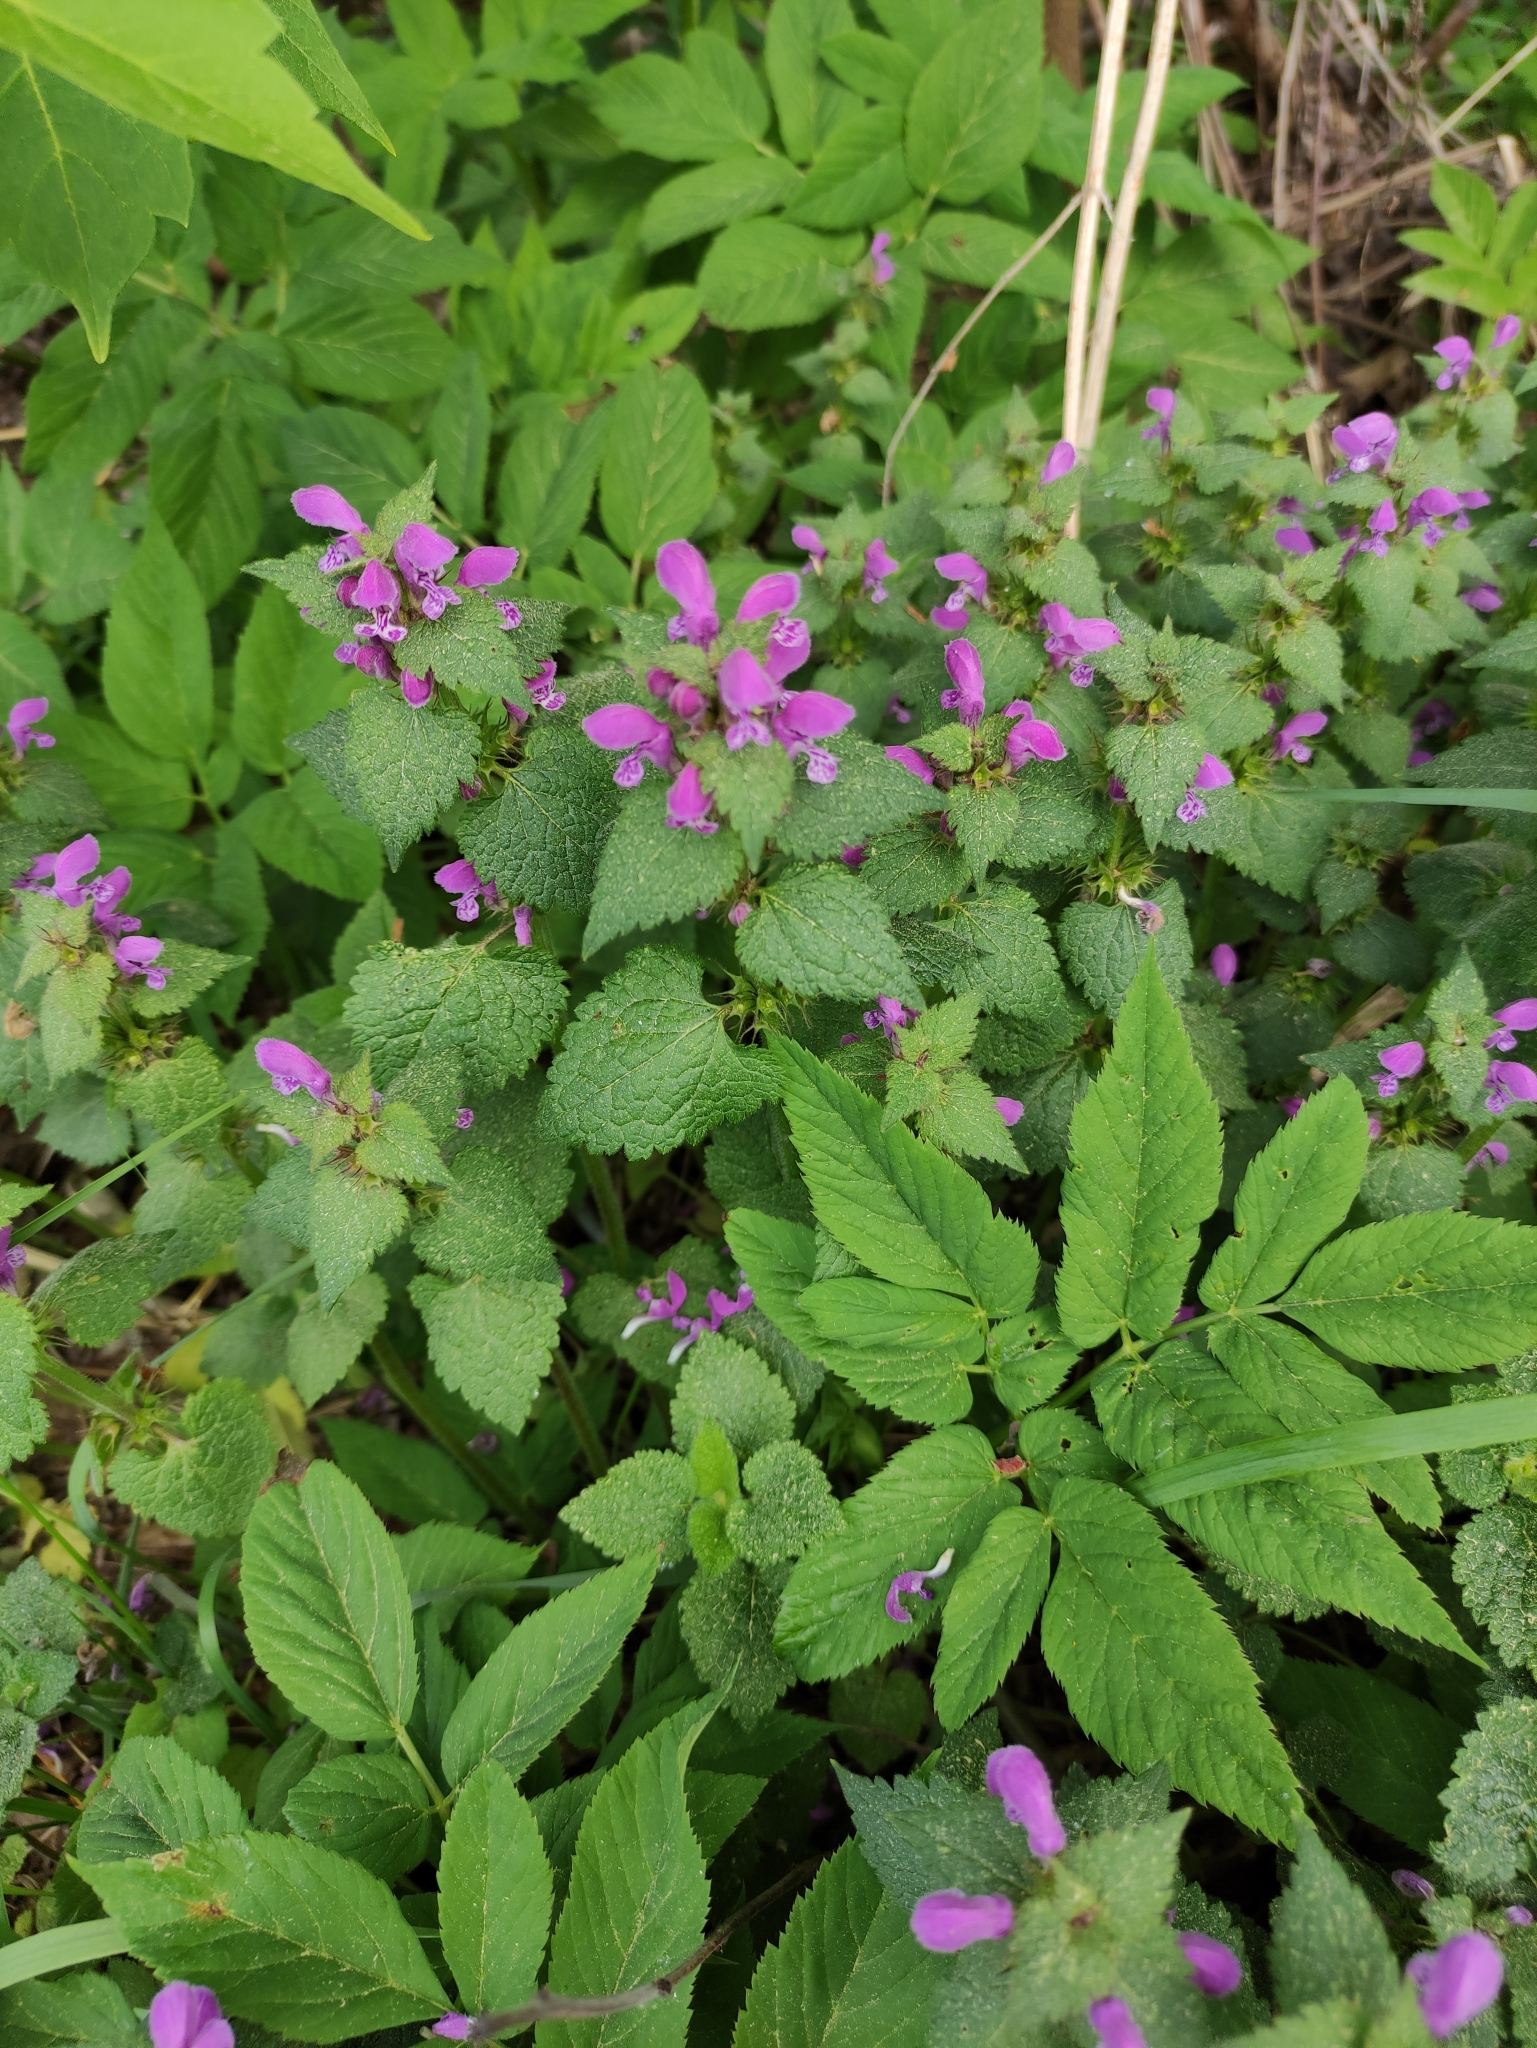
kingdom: Plantae
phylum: Tracheophyta
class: Magnoliopsida
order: Lamiales
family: Lamiaceae
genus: Lamium
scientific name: Lamium maculatum
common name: Spotted dead-nettle
